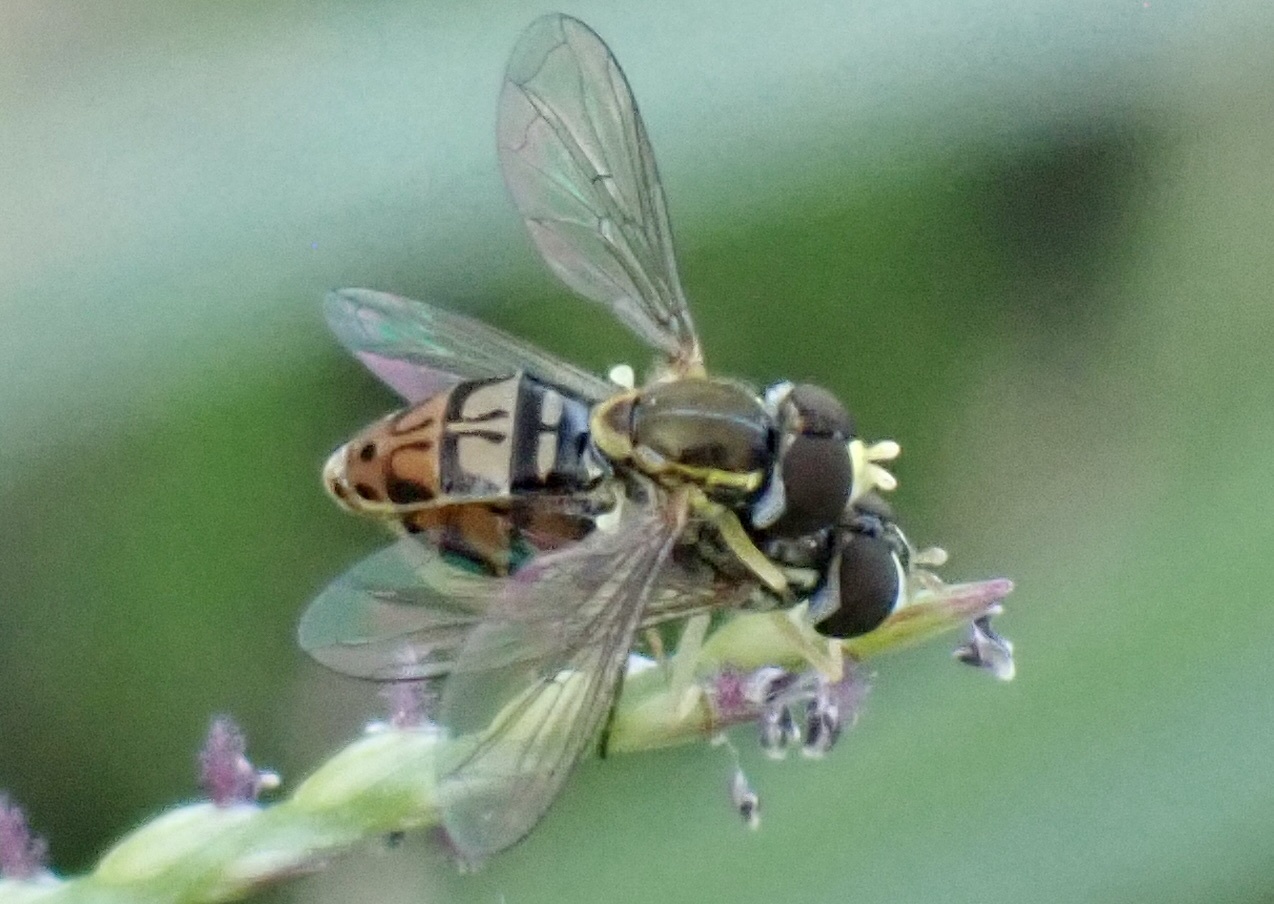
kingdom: Animalia
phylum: Arthropoda
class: Insecta
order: Diptera
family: Syrphidae
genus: Toxomerus
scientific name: Toxomerus marginatus
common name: Syrphid fly
